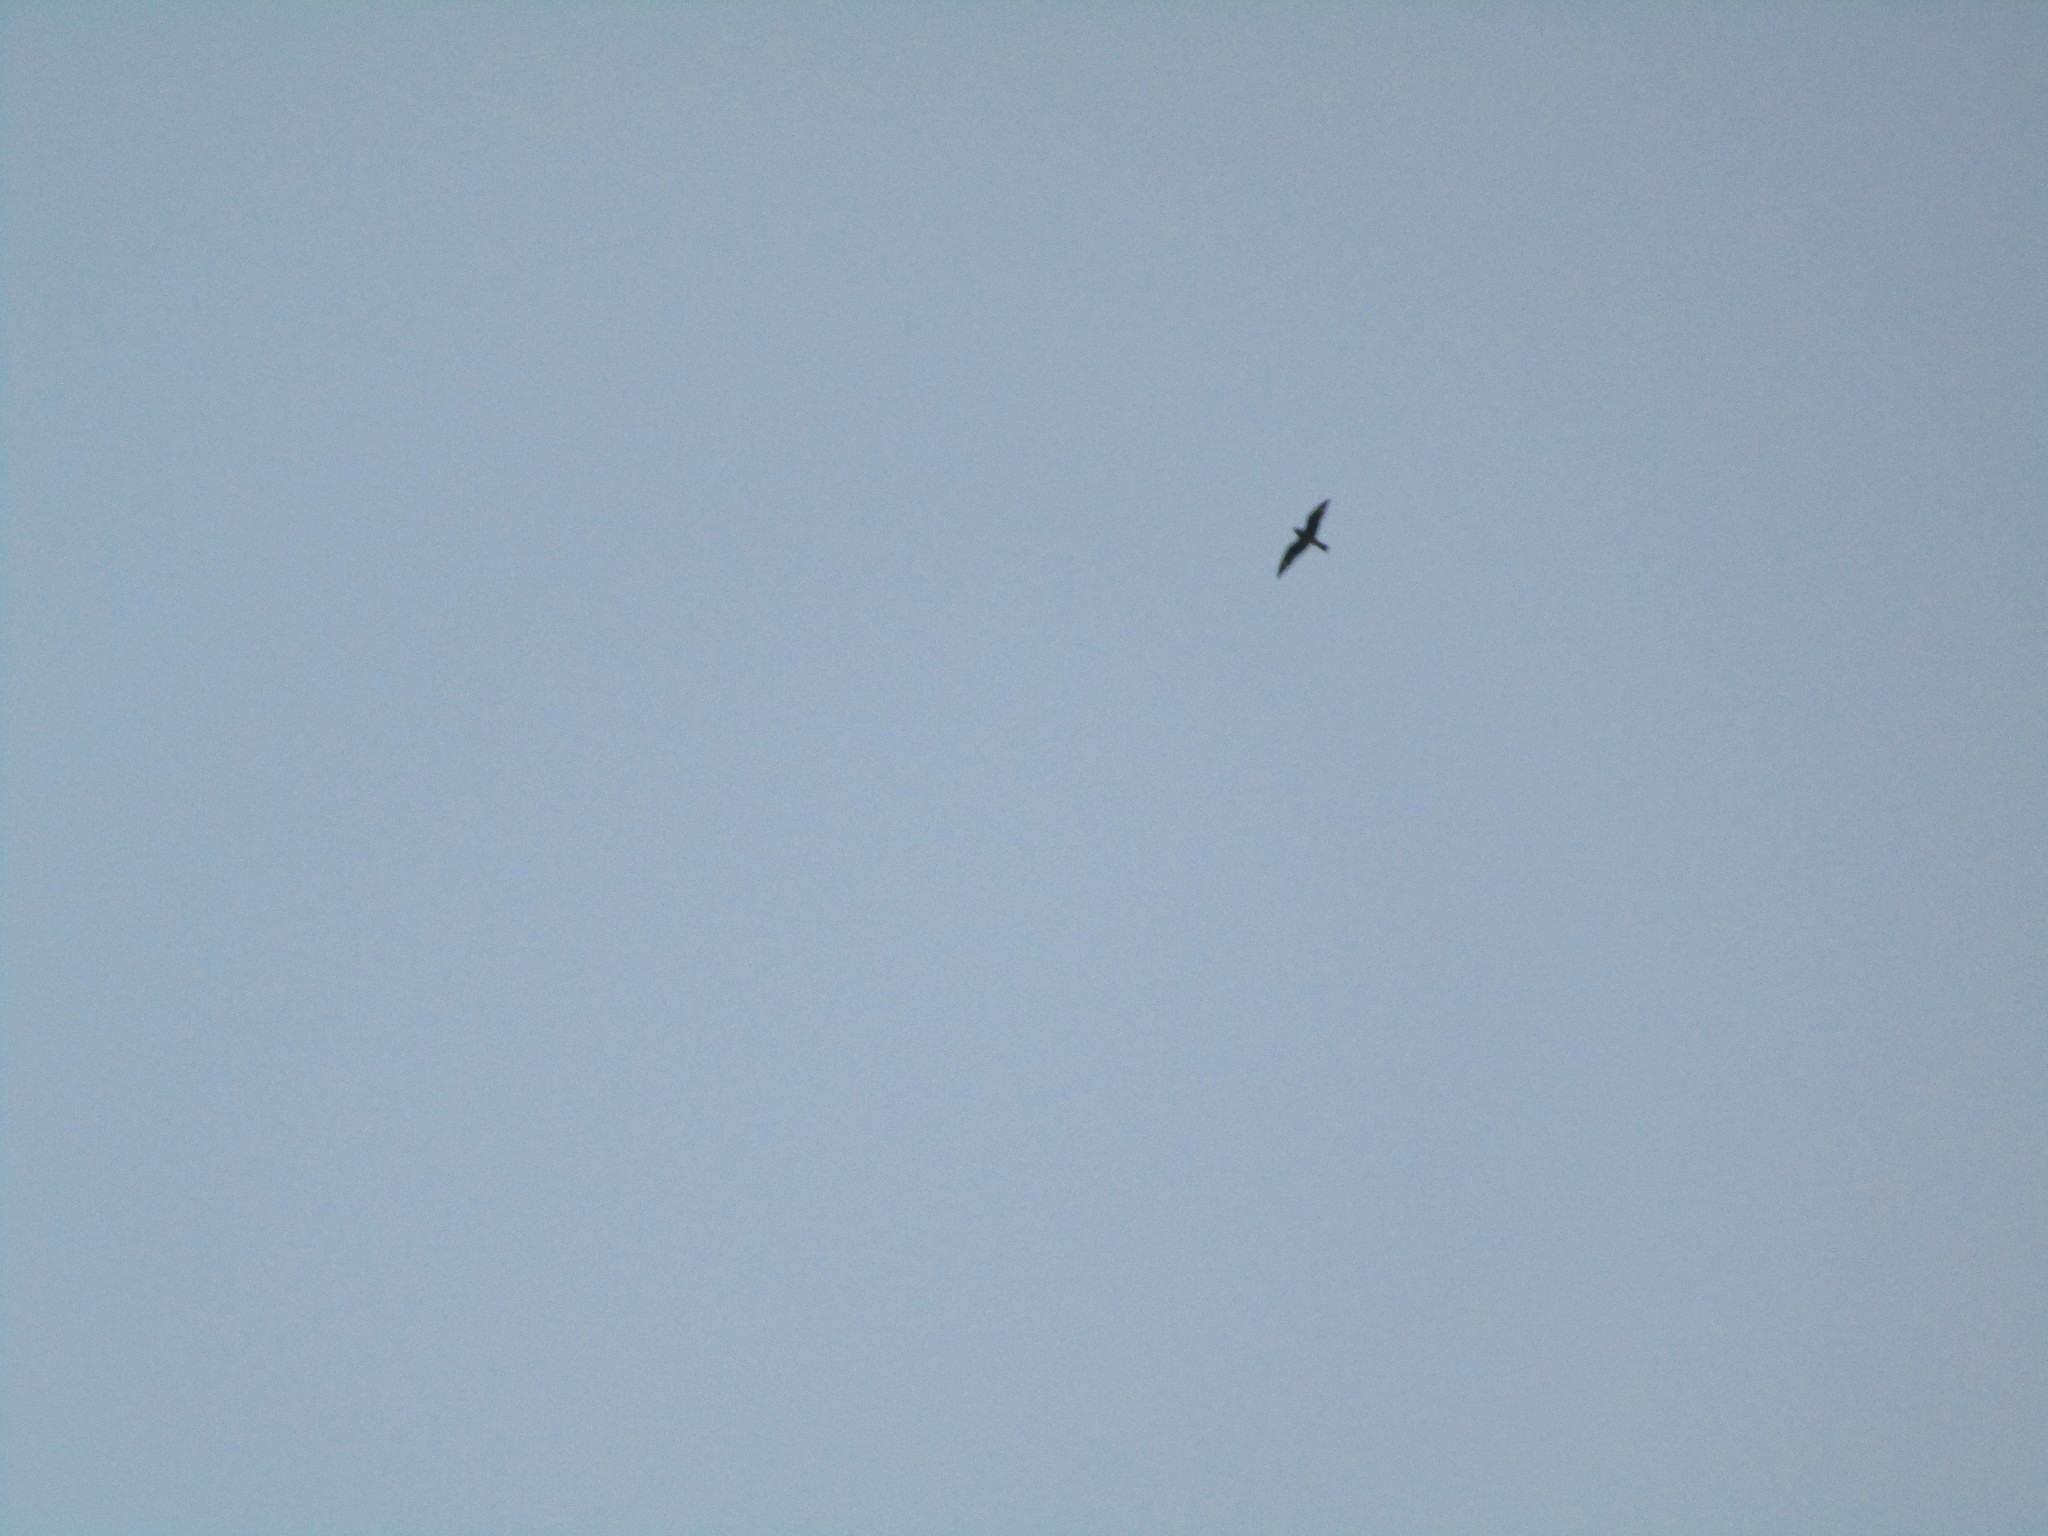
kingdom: Animalia
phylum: Chordata
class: Aves
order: Caprimulgiformes
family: Caprimulgidae
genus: Chordeiles
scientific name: Chordeiles minor
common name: Common nighthawk
